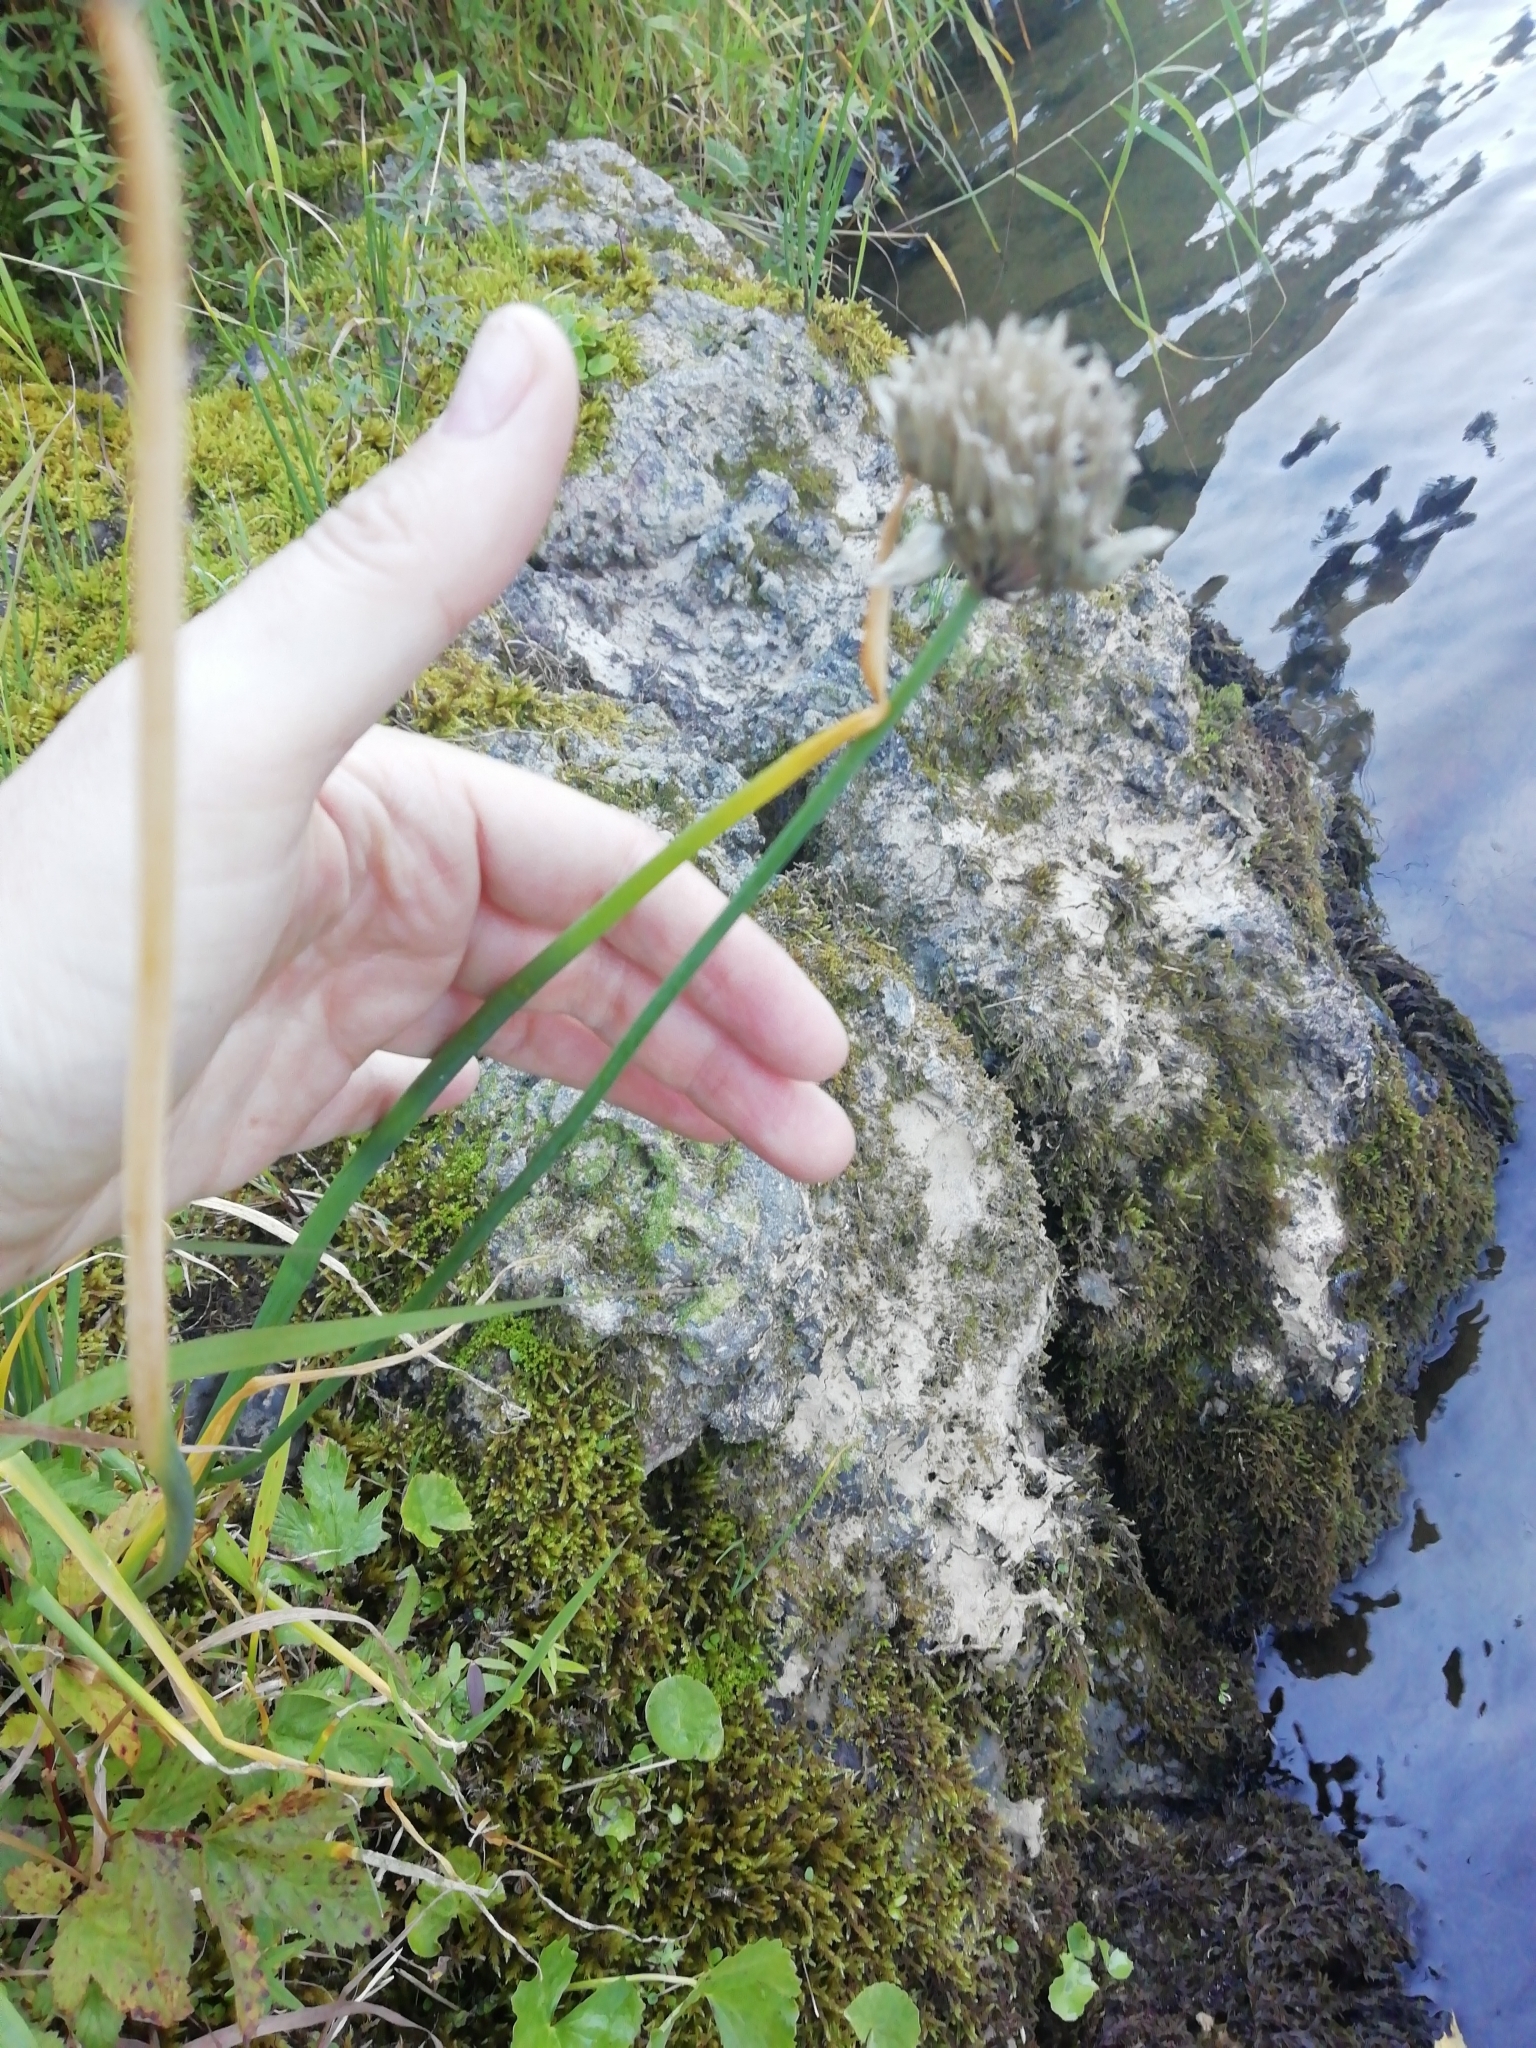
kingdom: Plantae
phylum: Tracheophyta
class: Liliopsida
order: Asparagales
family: Amaryllidaceae
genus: Allium
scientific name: Allium schoenoprasum
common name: Chives
